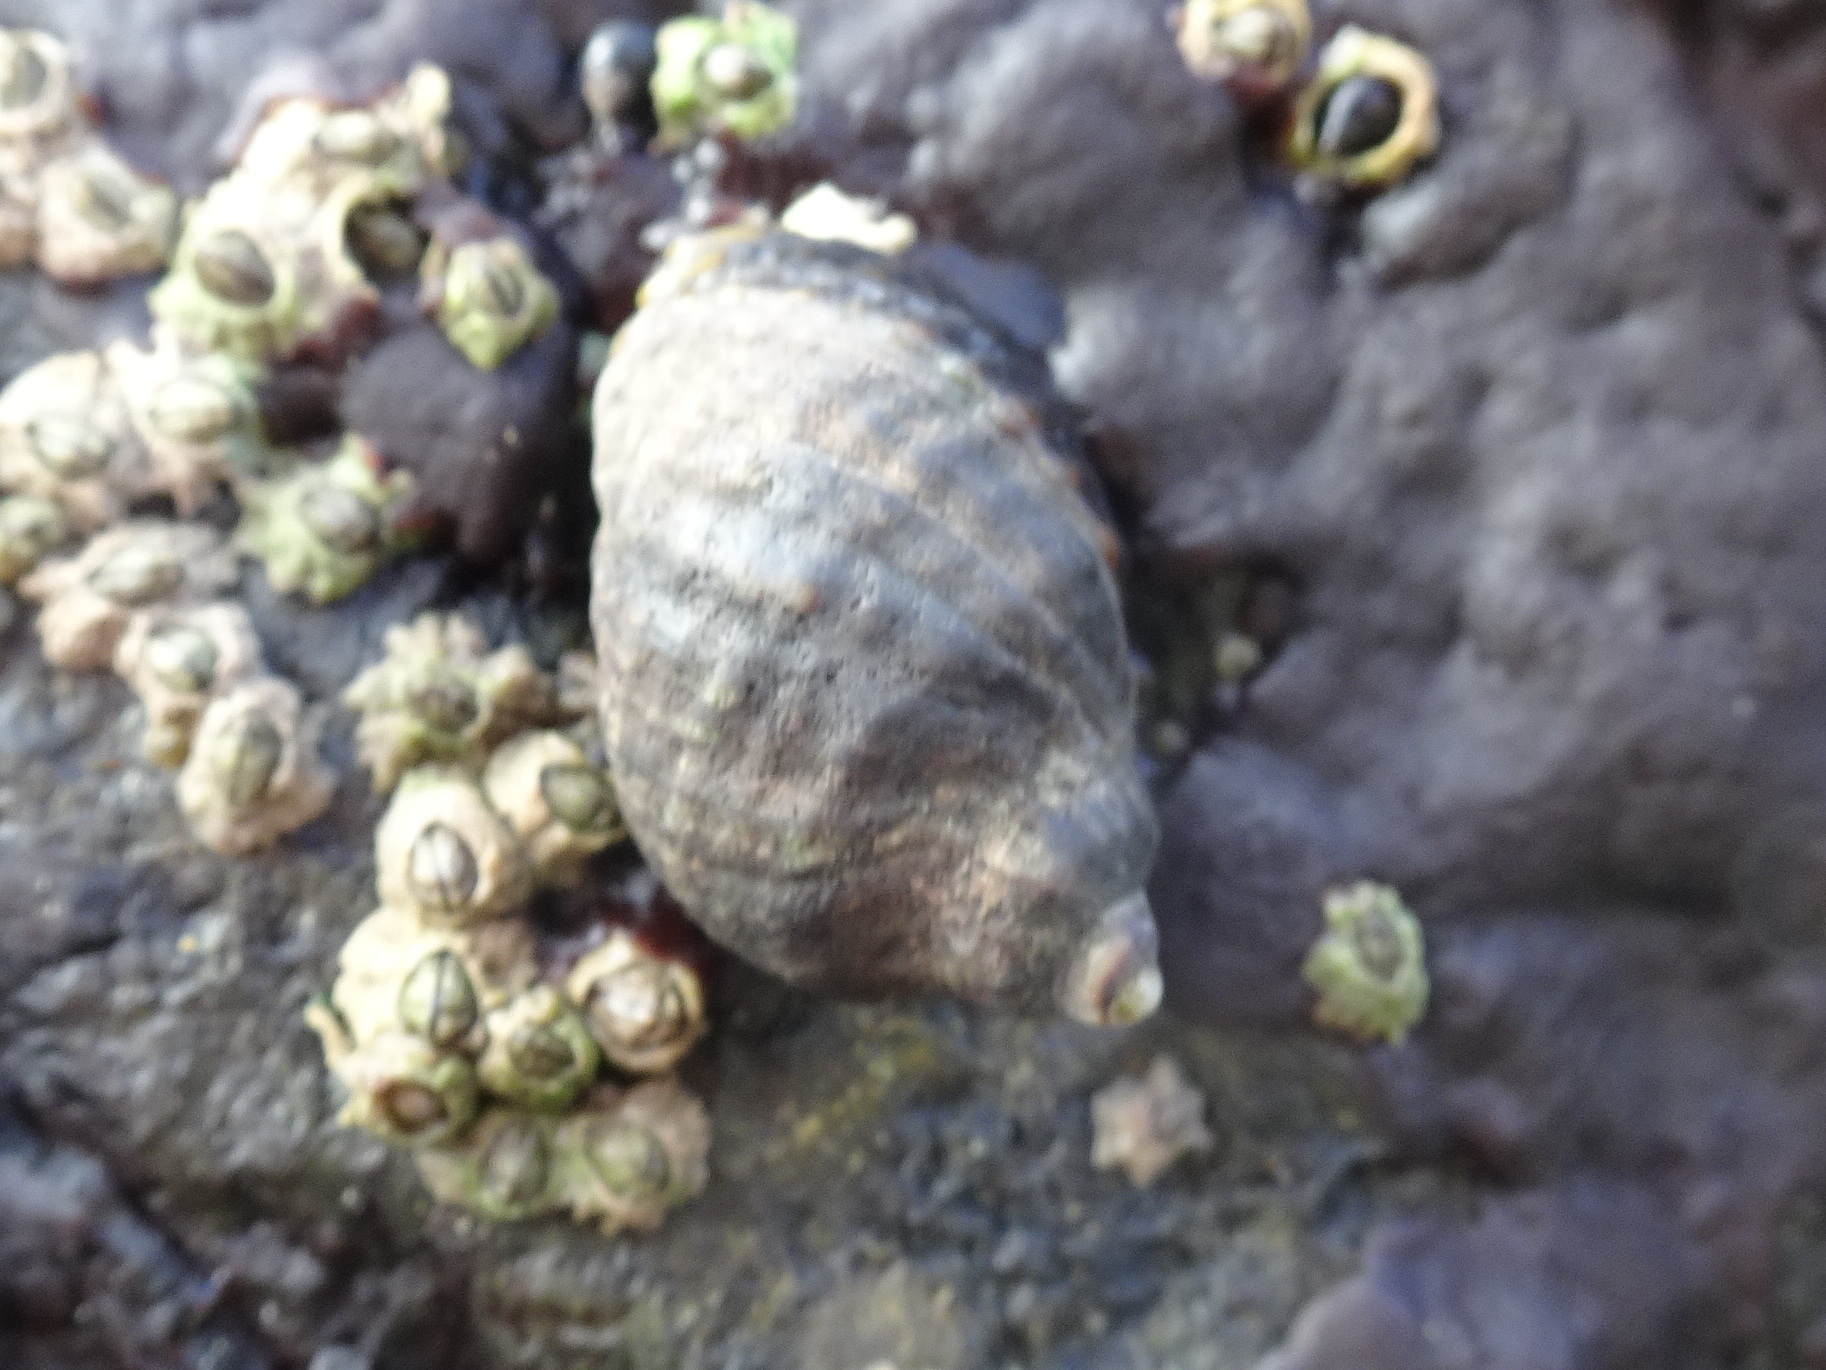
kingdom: Animalia
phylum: Mollusca
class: Gastropoda
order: Neogastropoda
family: Muricidae
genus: Nucella
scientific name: Nucella ostrina
